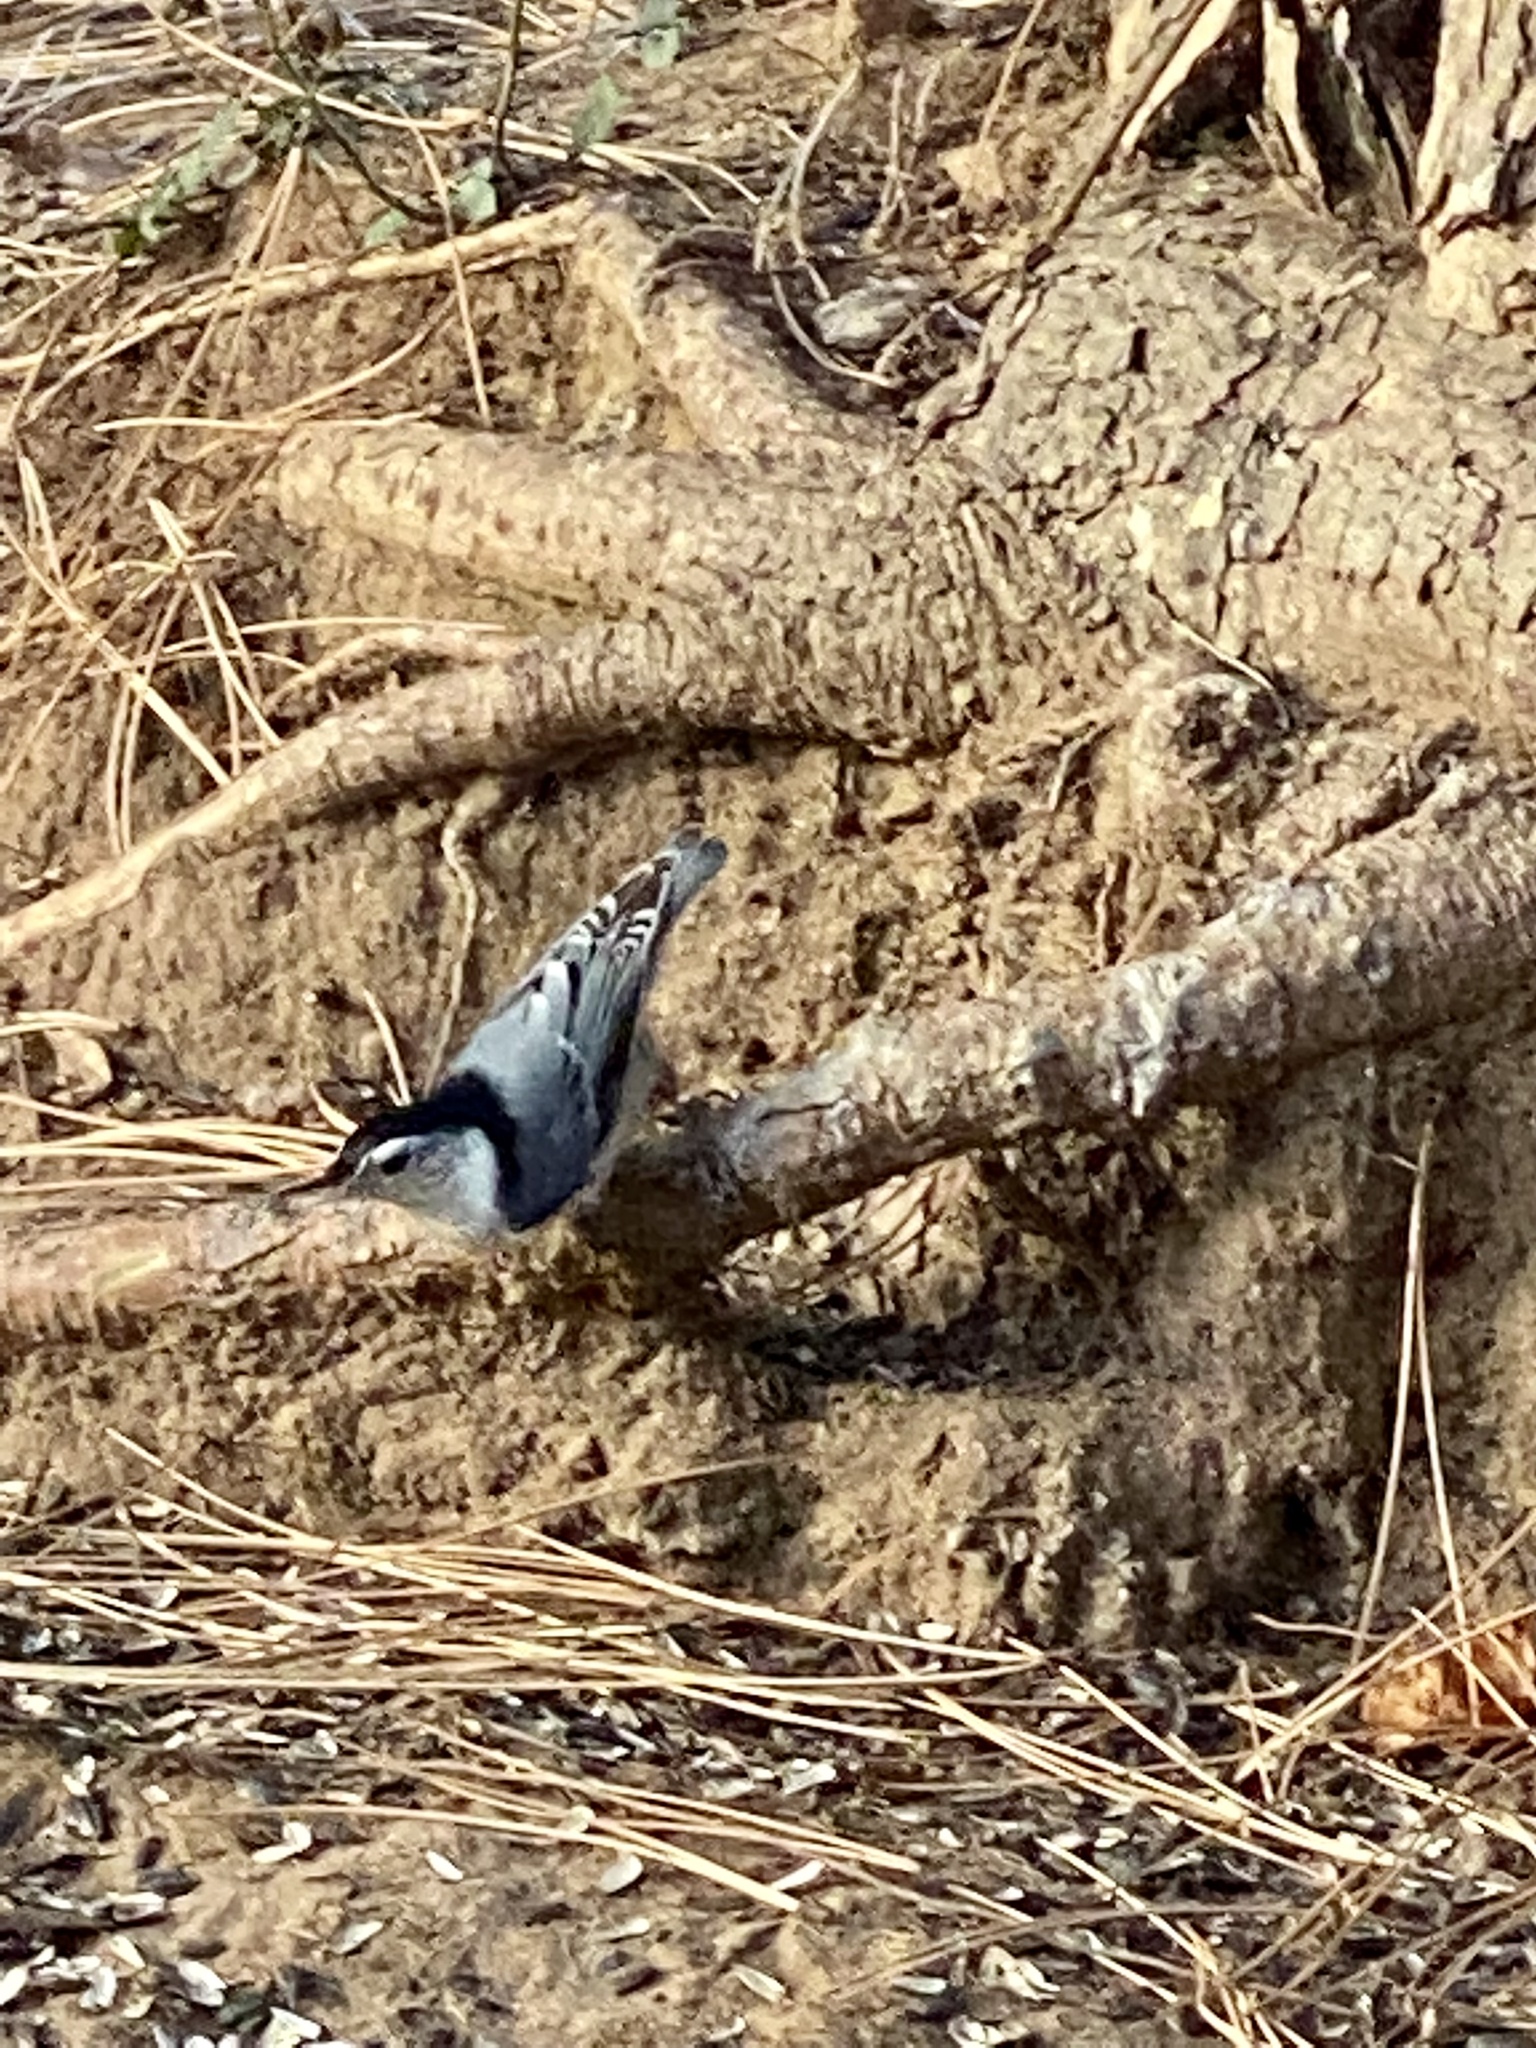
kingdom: Animalia
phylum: Chordata
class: Aves
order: Passeriformes
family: Sittidae
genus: Sitta
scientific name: Sitta carolinensis
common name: White-breasted nuthatch
